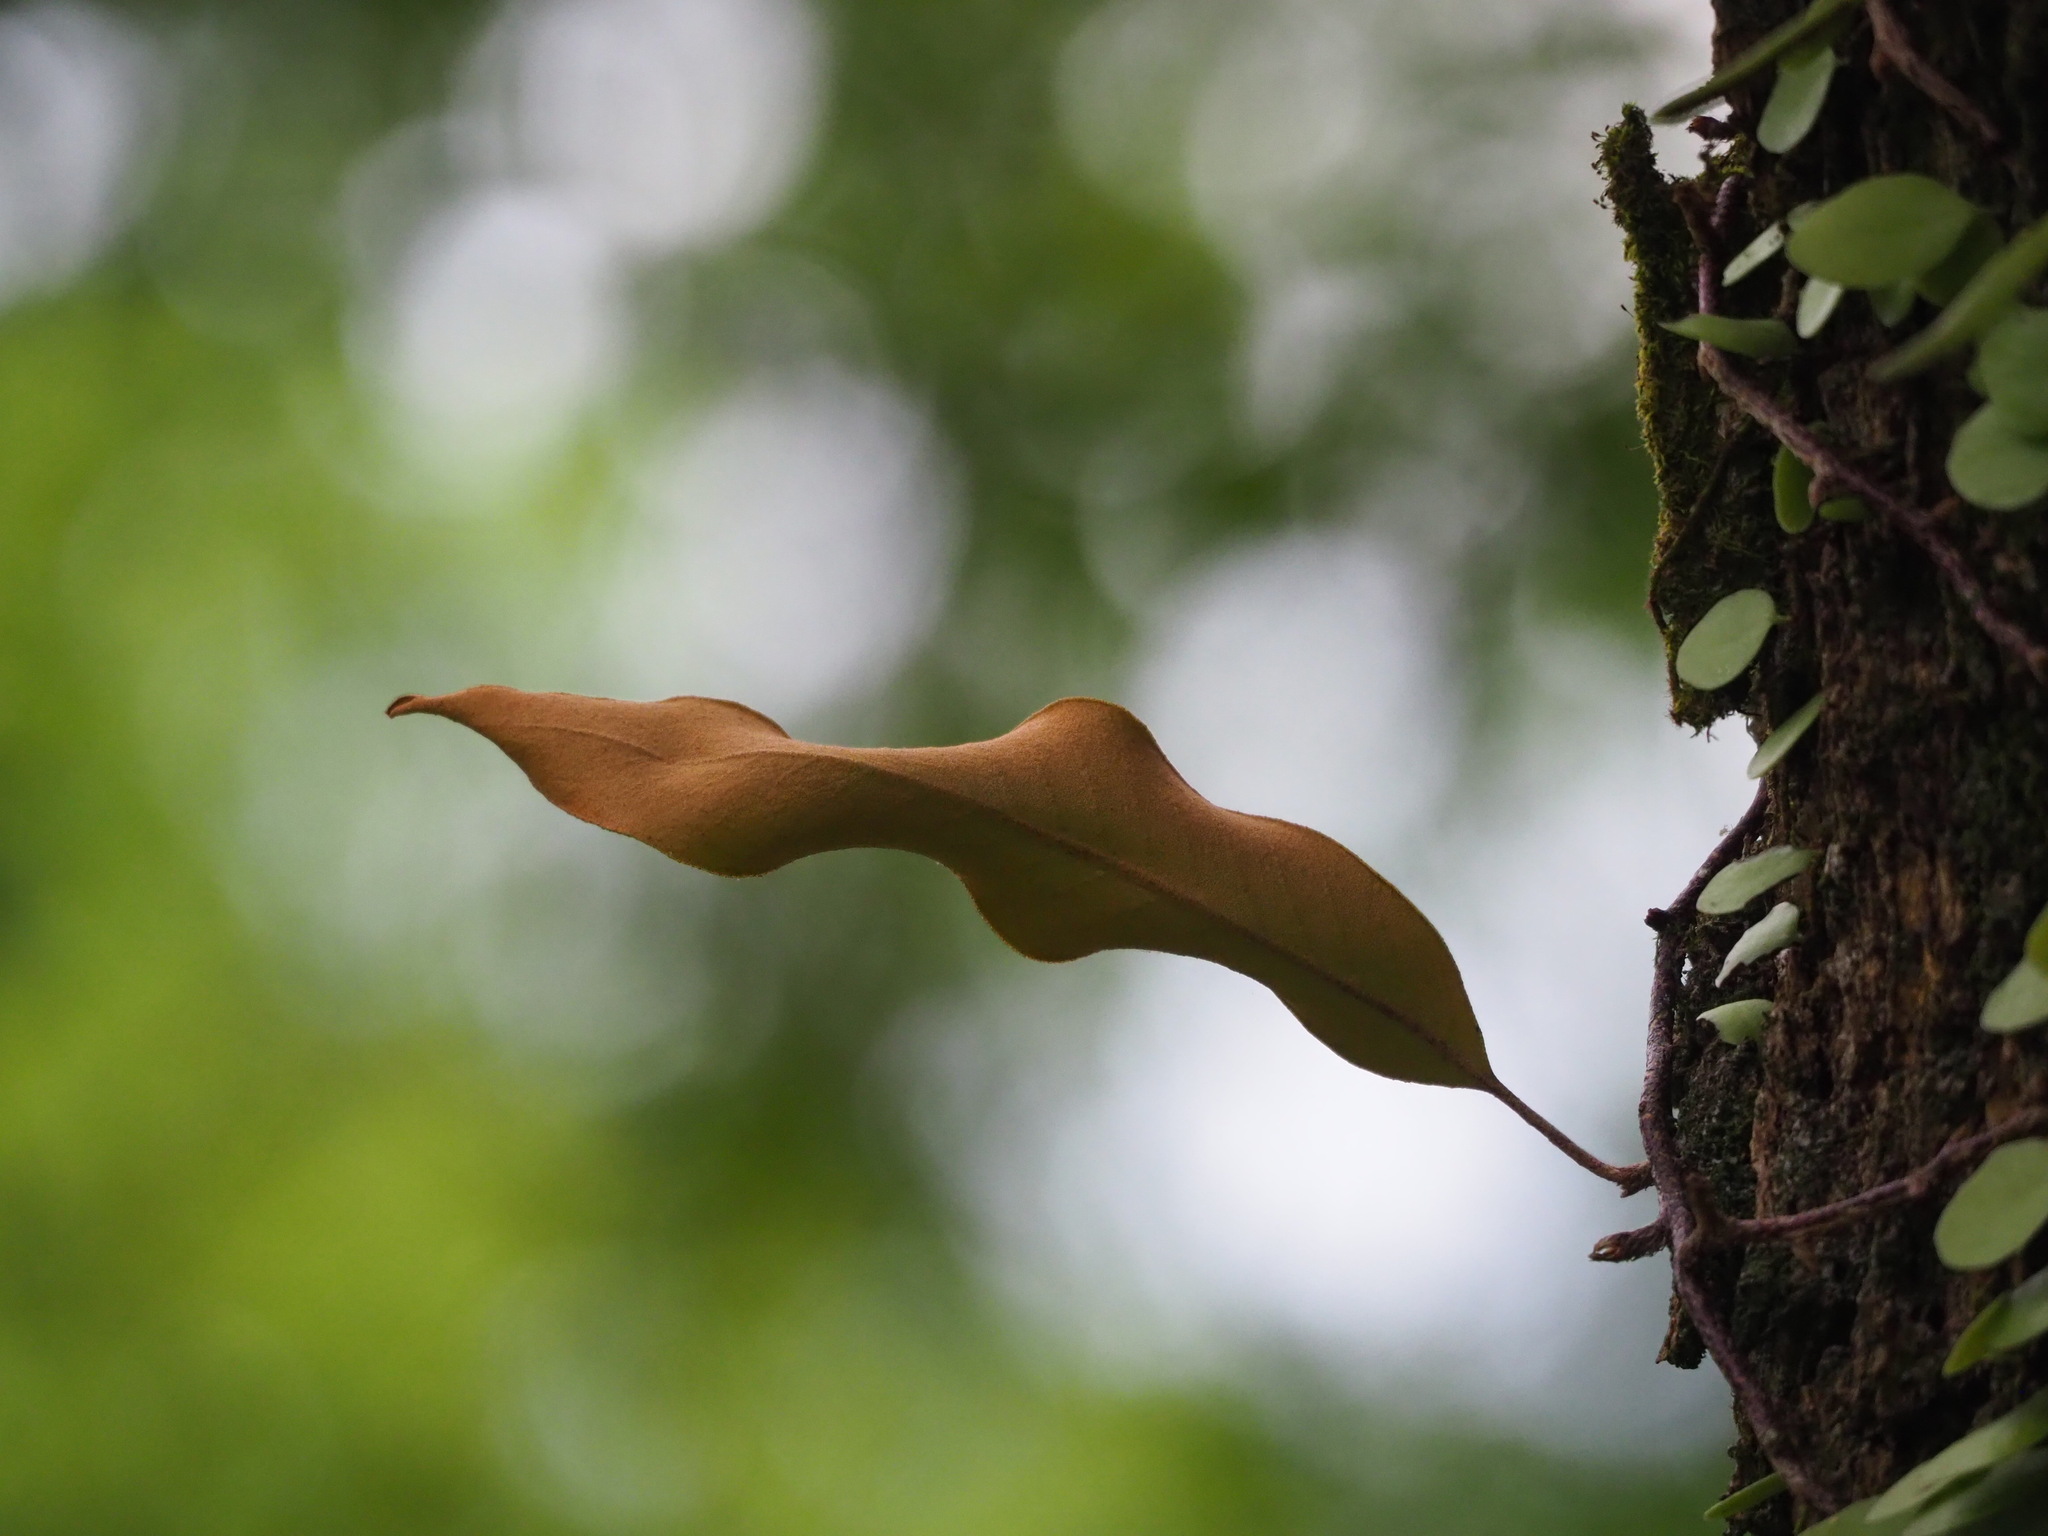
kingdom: Plantae
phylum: Tracheophyta
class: Polypodiopsida
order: Polypodiales
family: Polypodiaceae
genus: Pyrrosia
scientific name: Pyrrosia lingua
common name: Felt fern
